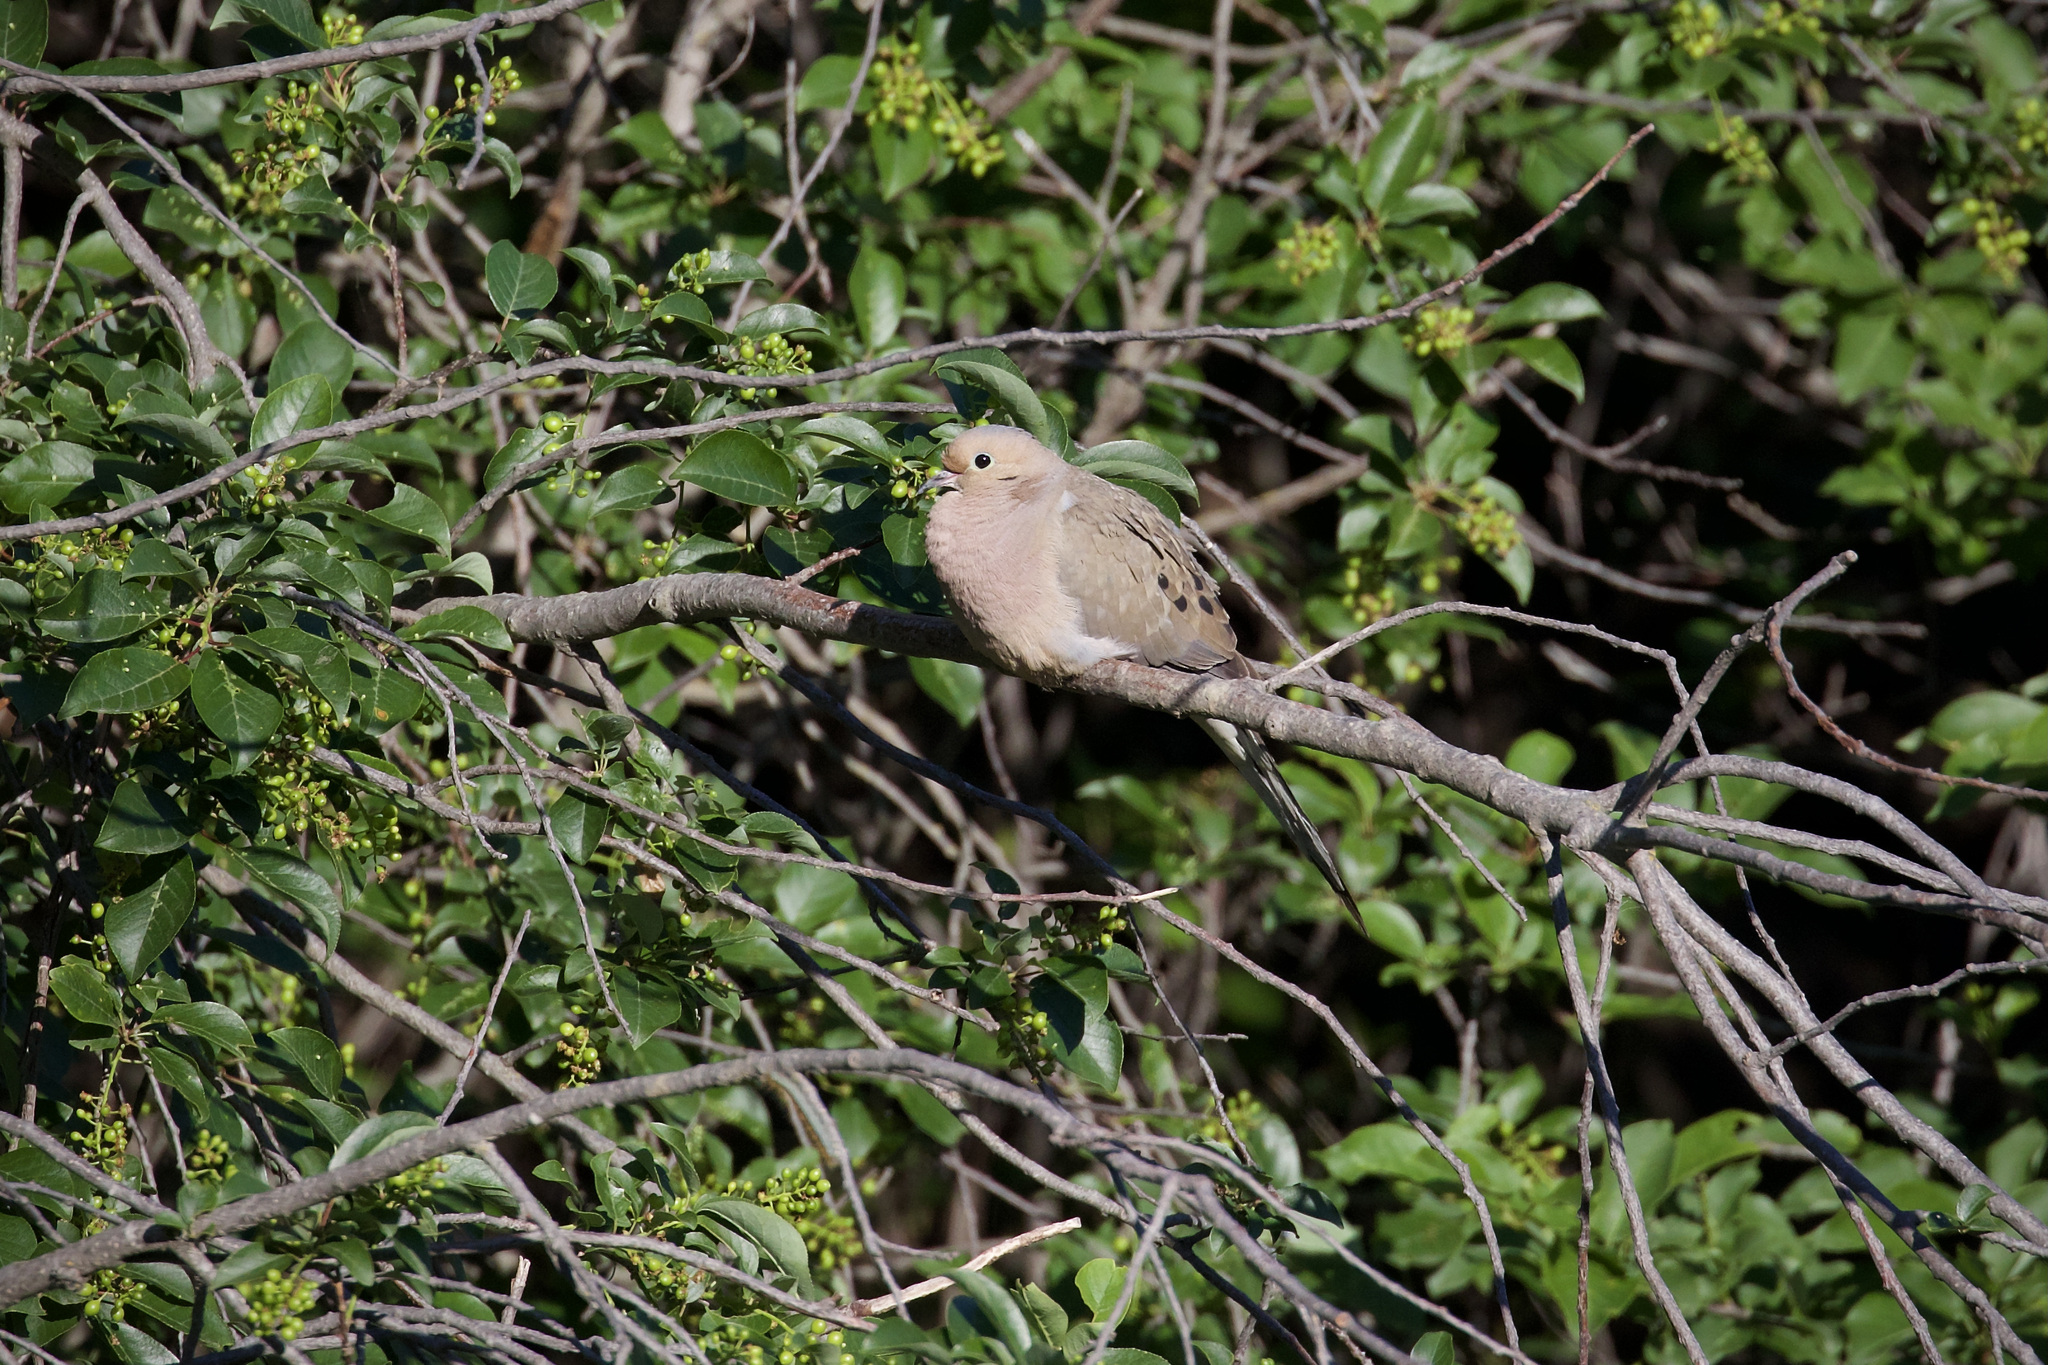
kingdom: Animalia
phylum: Chordata
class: Aves
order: Columbiformes
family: Columbidae
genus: Zenaida
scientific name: Zenaida macroura
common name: Mourning dove
